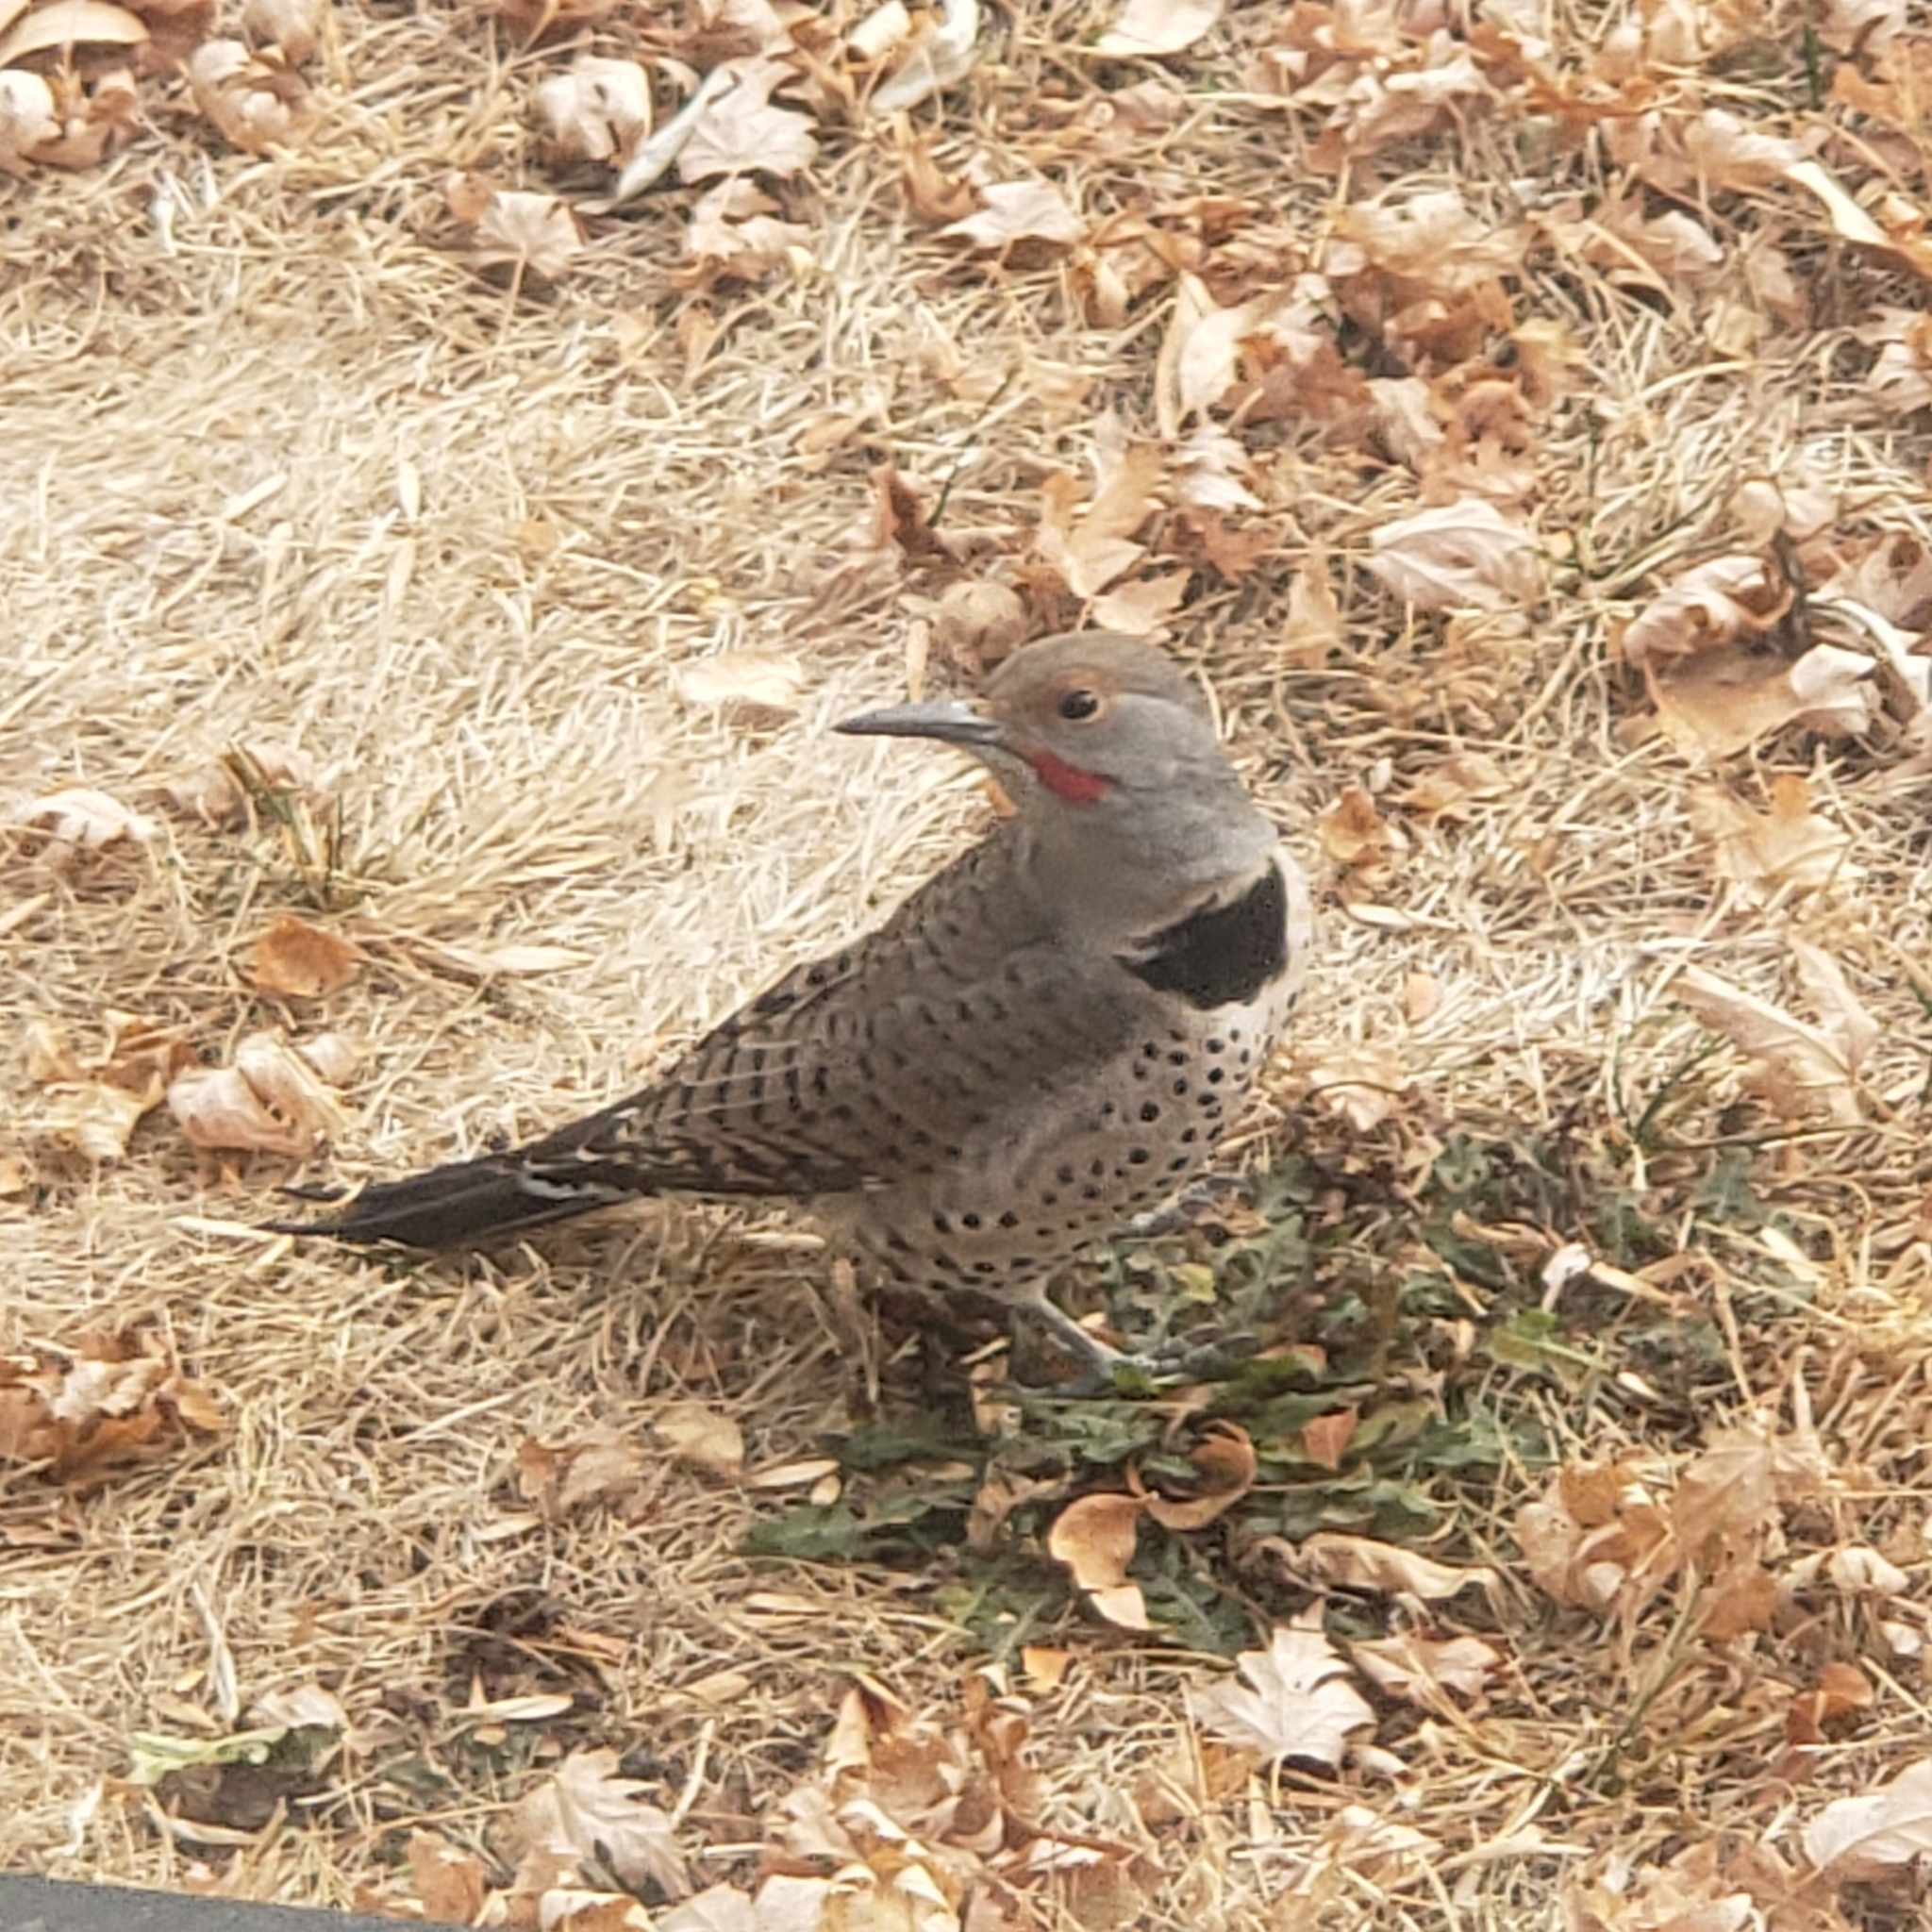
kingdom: Animalia
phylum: Chordata
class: Aves
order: Piciformes
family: Picidae
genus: Colaptes
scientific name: Colaptes auratus
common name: Northern flicker
